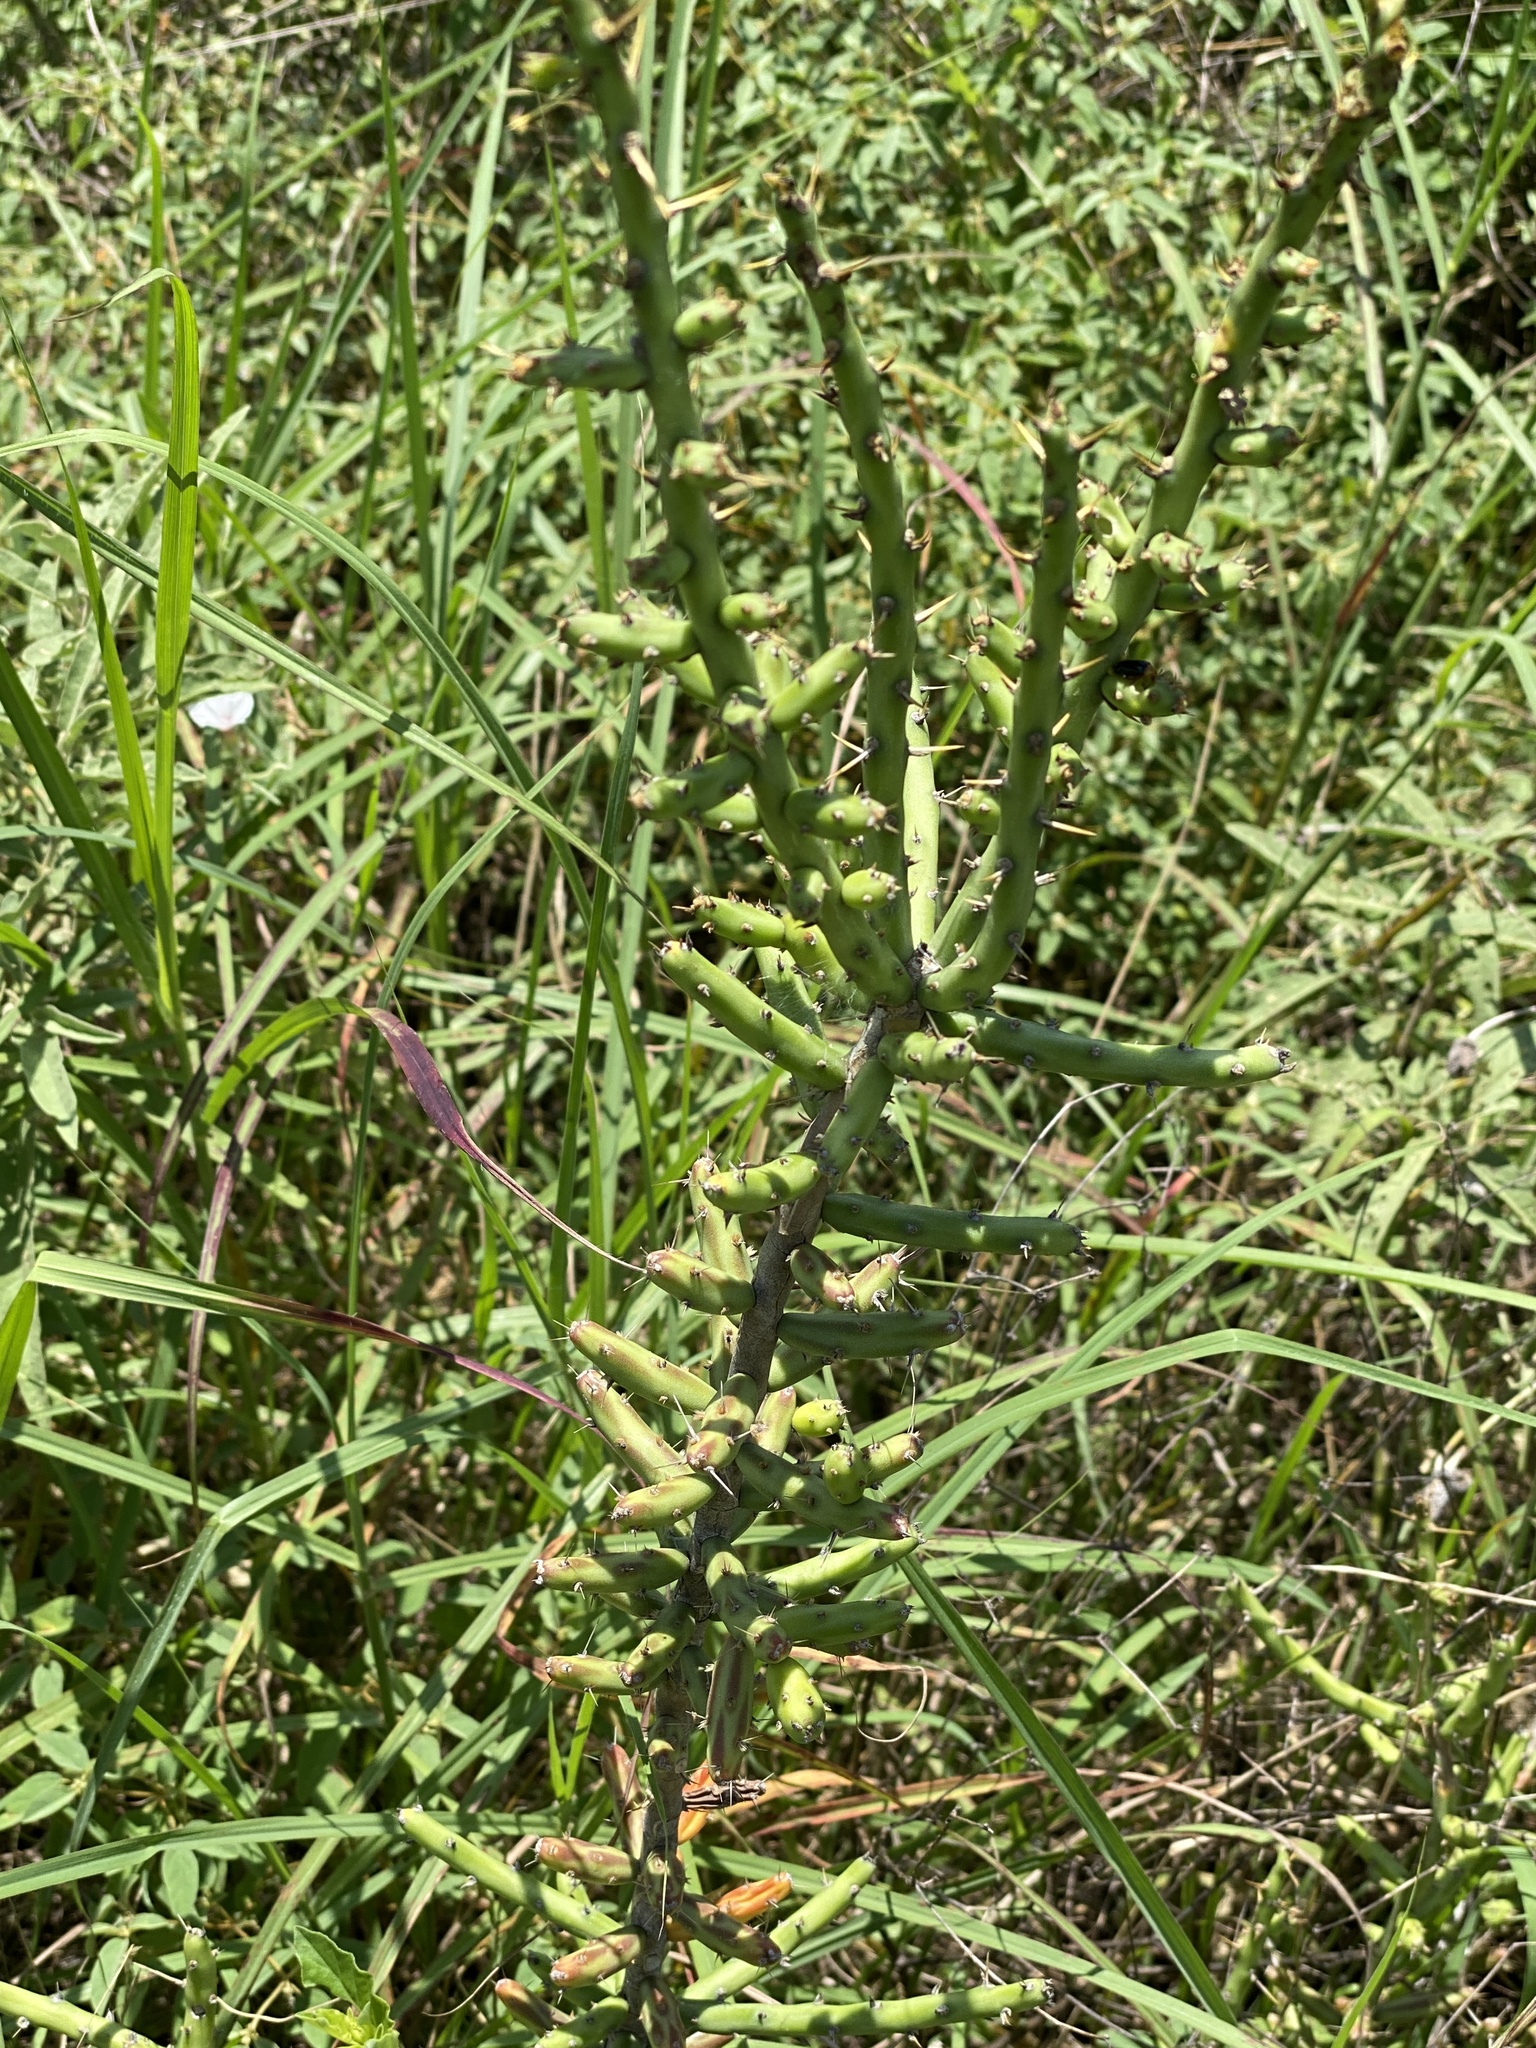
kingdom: Plantae
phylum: Tracheophyta
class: Magnoliopsida
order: Caryophyllales
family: Cactaceae
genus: Cylindropuntia
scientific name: Cylindropuntia leptocaulis
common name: Christmas cactus
